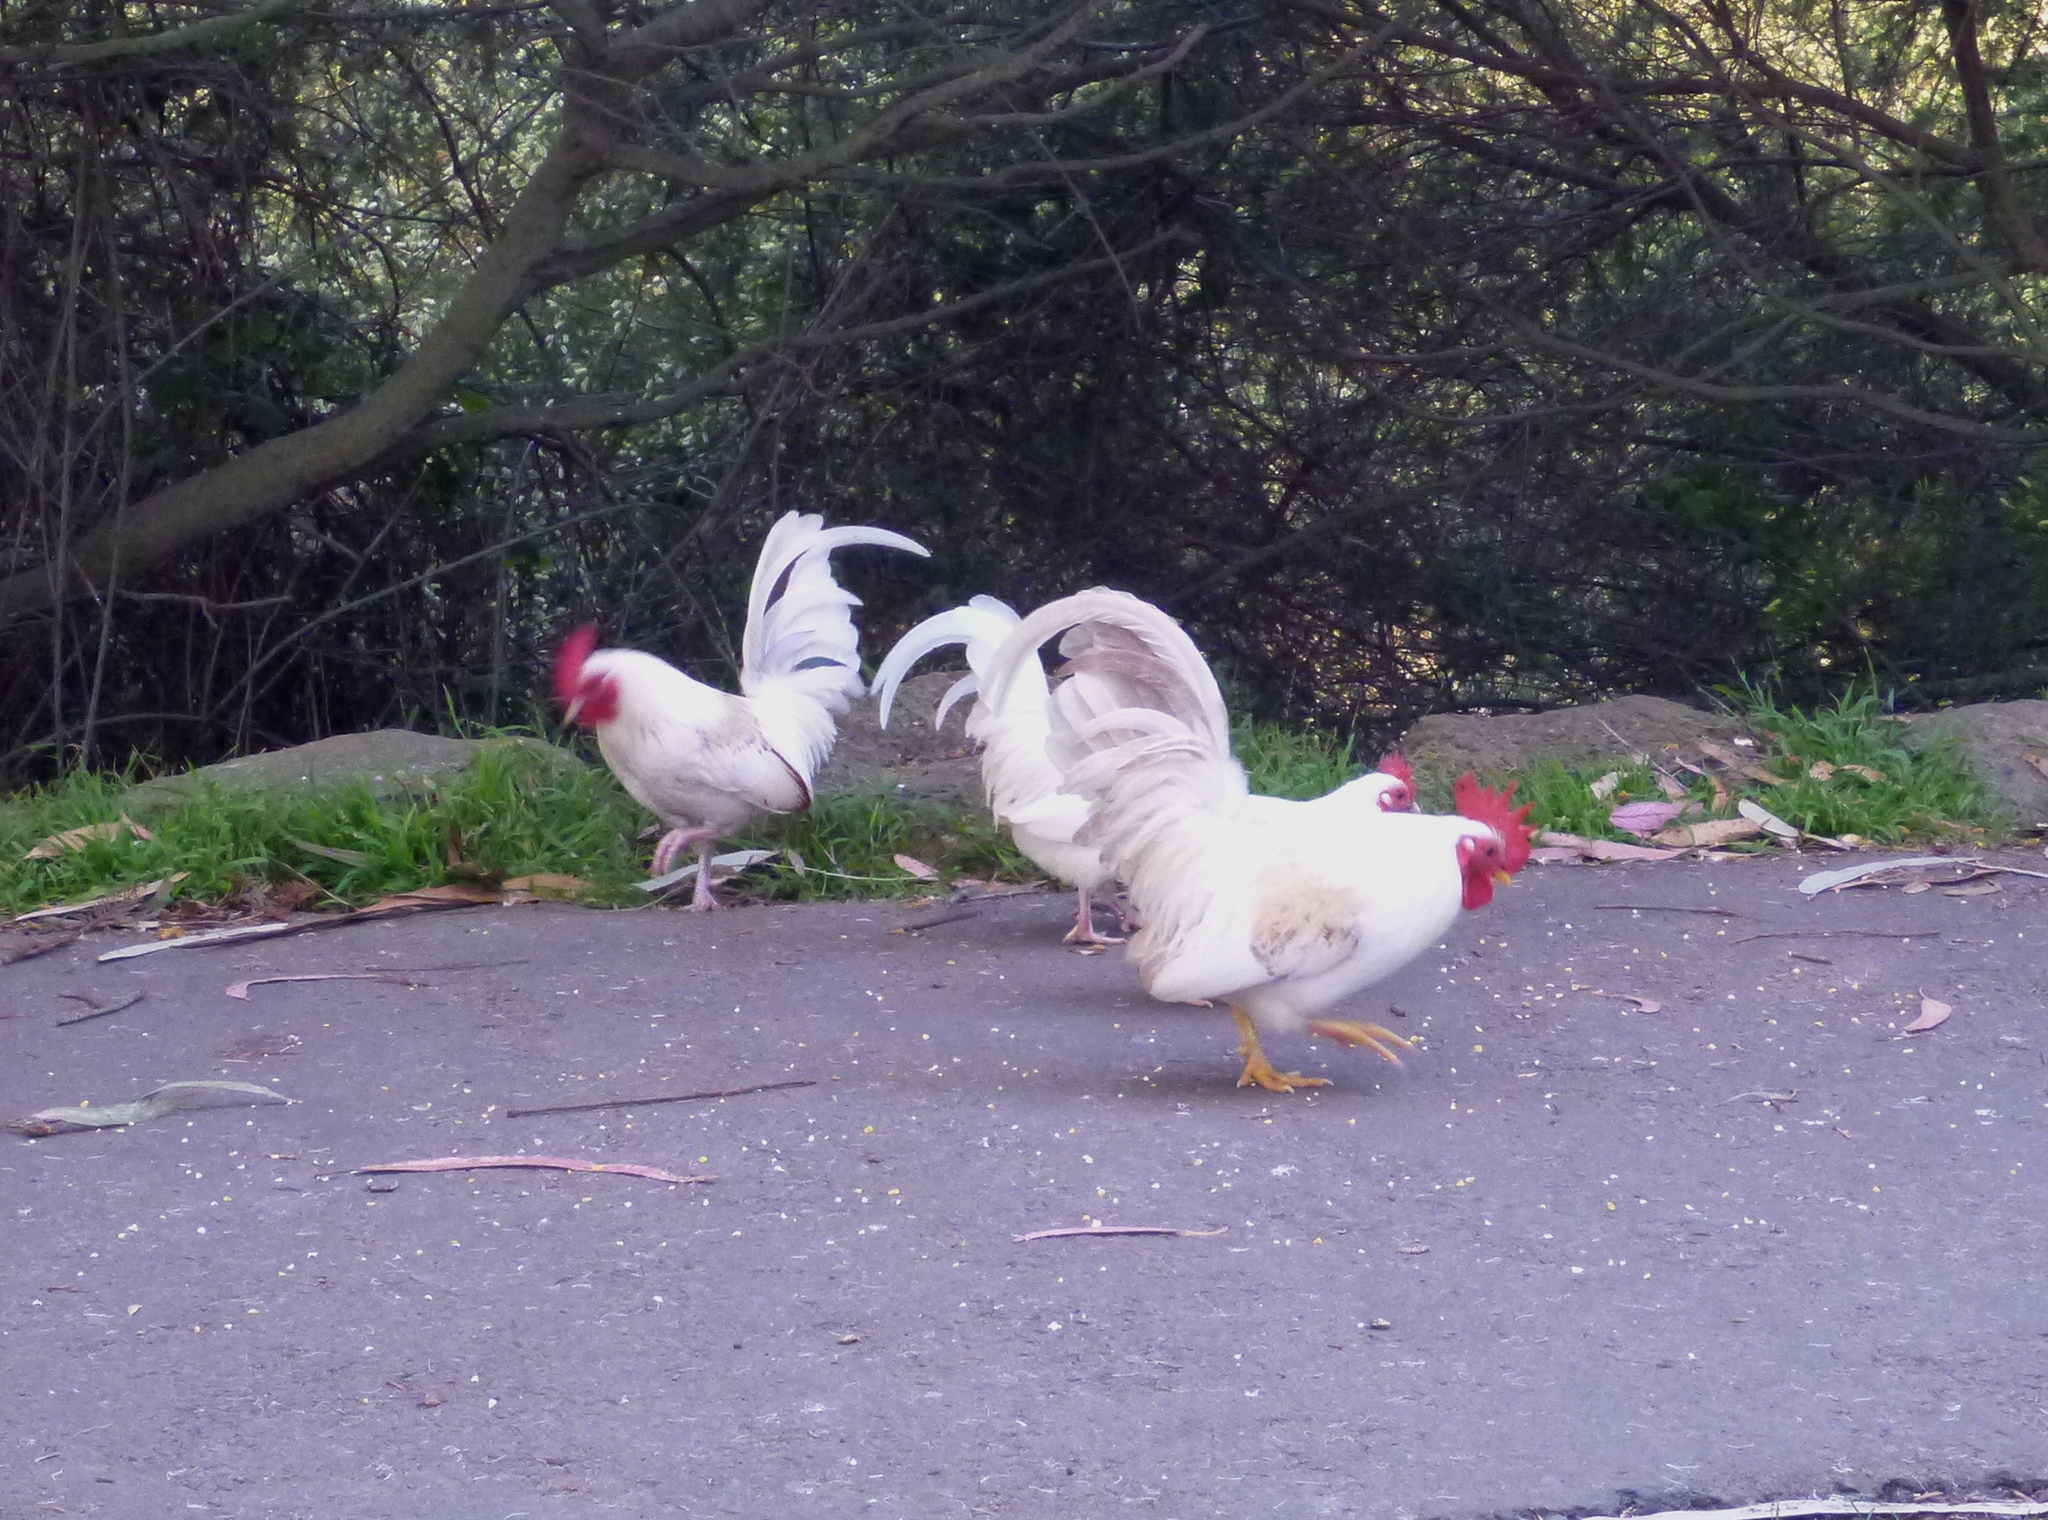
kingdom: Animalia
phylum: Chordata
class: Aves
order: Galliformes
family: Phasianidae
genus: Gallus
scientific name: Gallus gallus
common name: Red junglefowl
